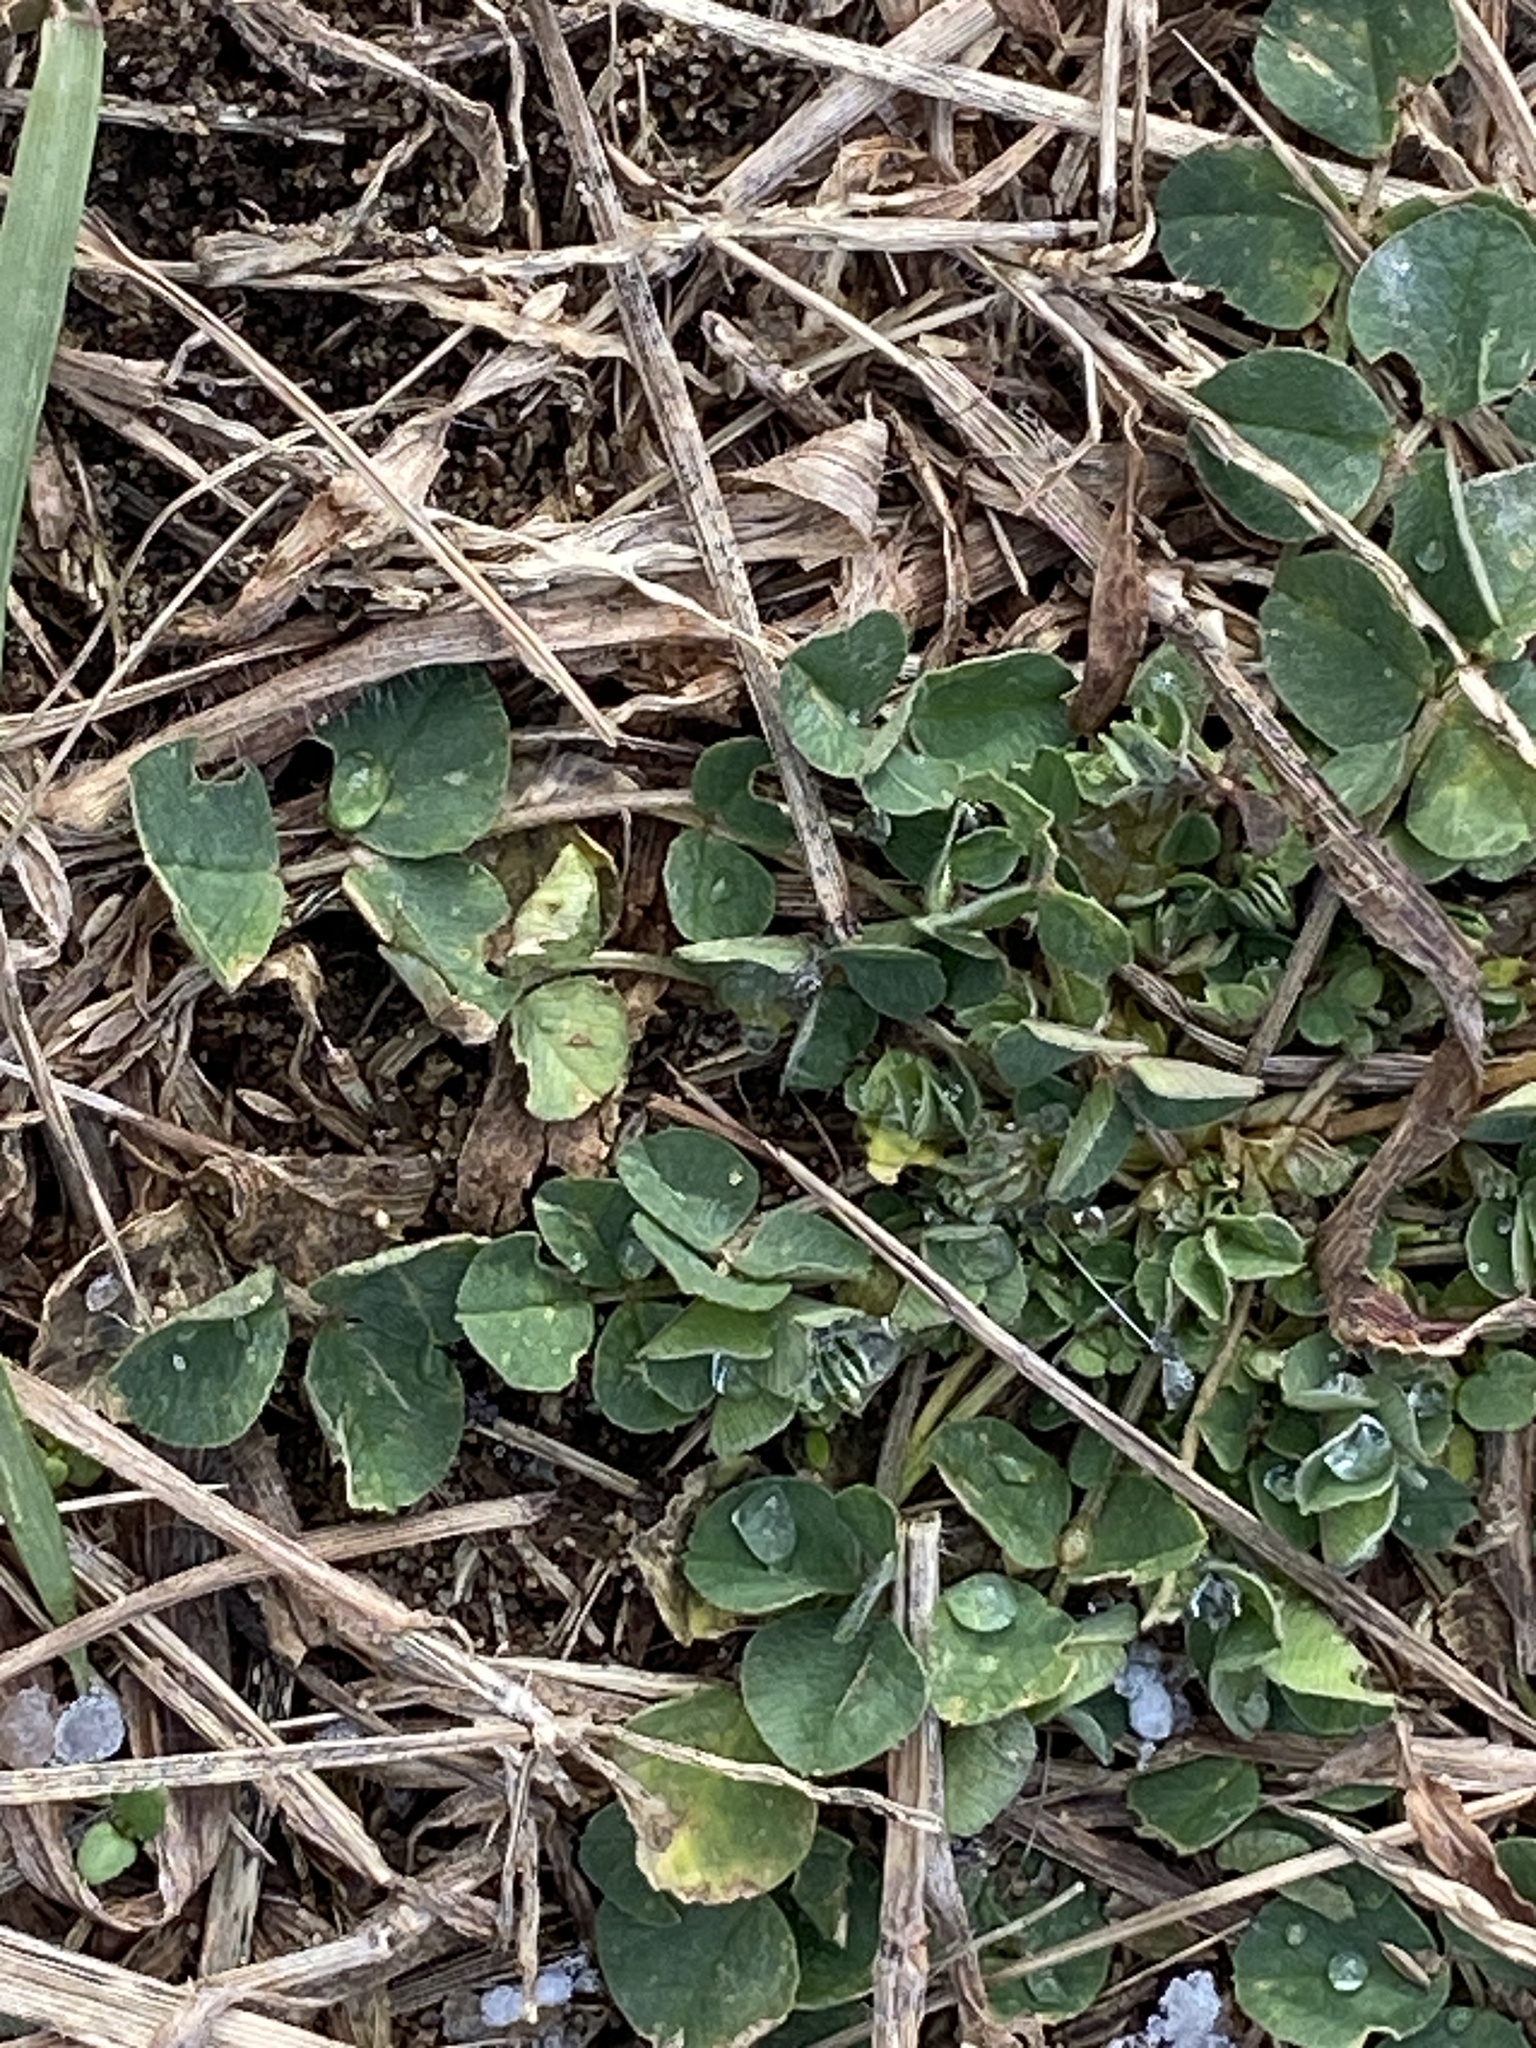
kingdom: Plantae
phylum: Tracheophyta
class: Magnoliopsida
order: Fabales
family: Fabaceae
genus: Medicago
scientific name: Medicago lupulina
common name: Black medick
